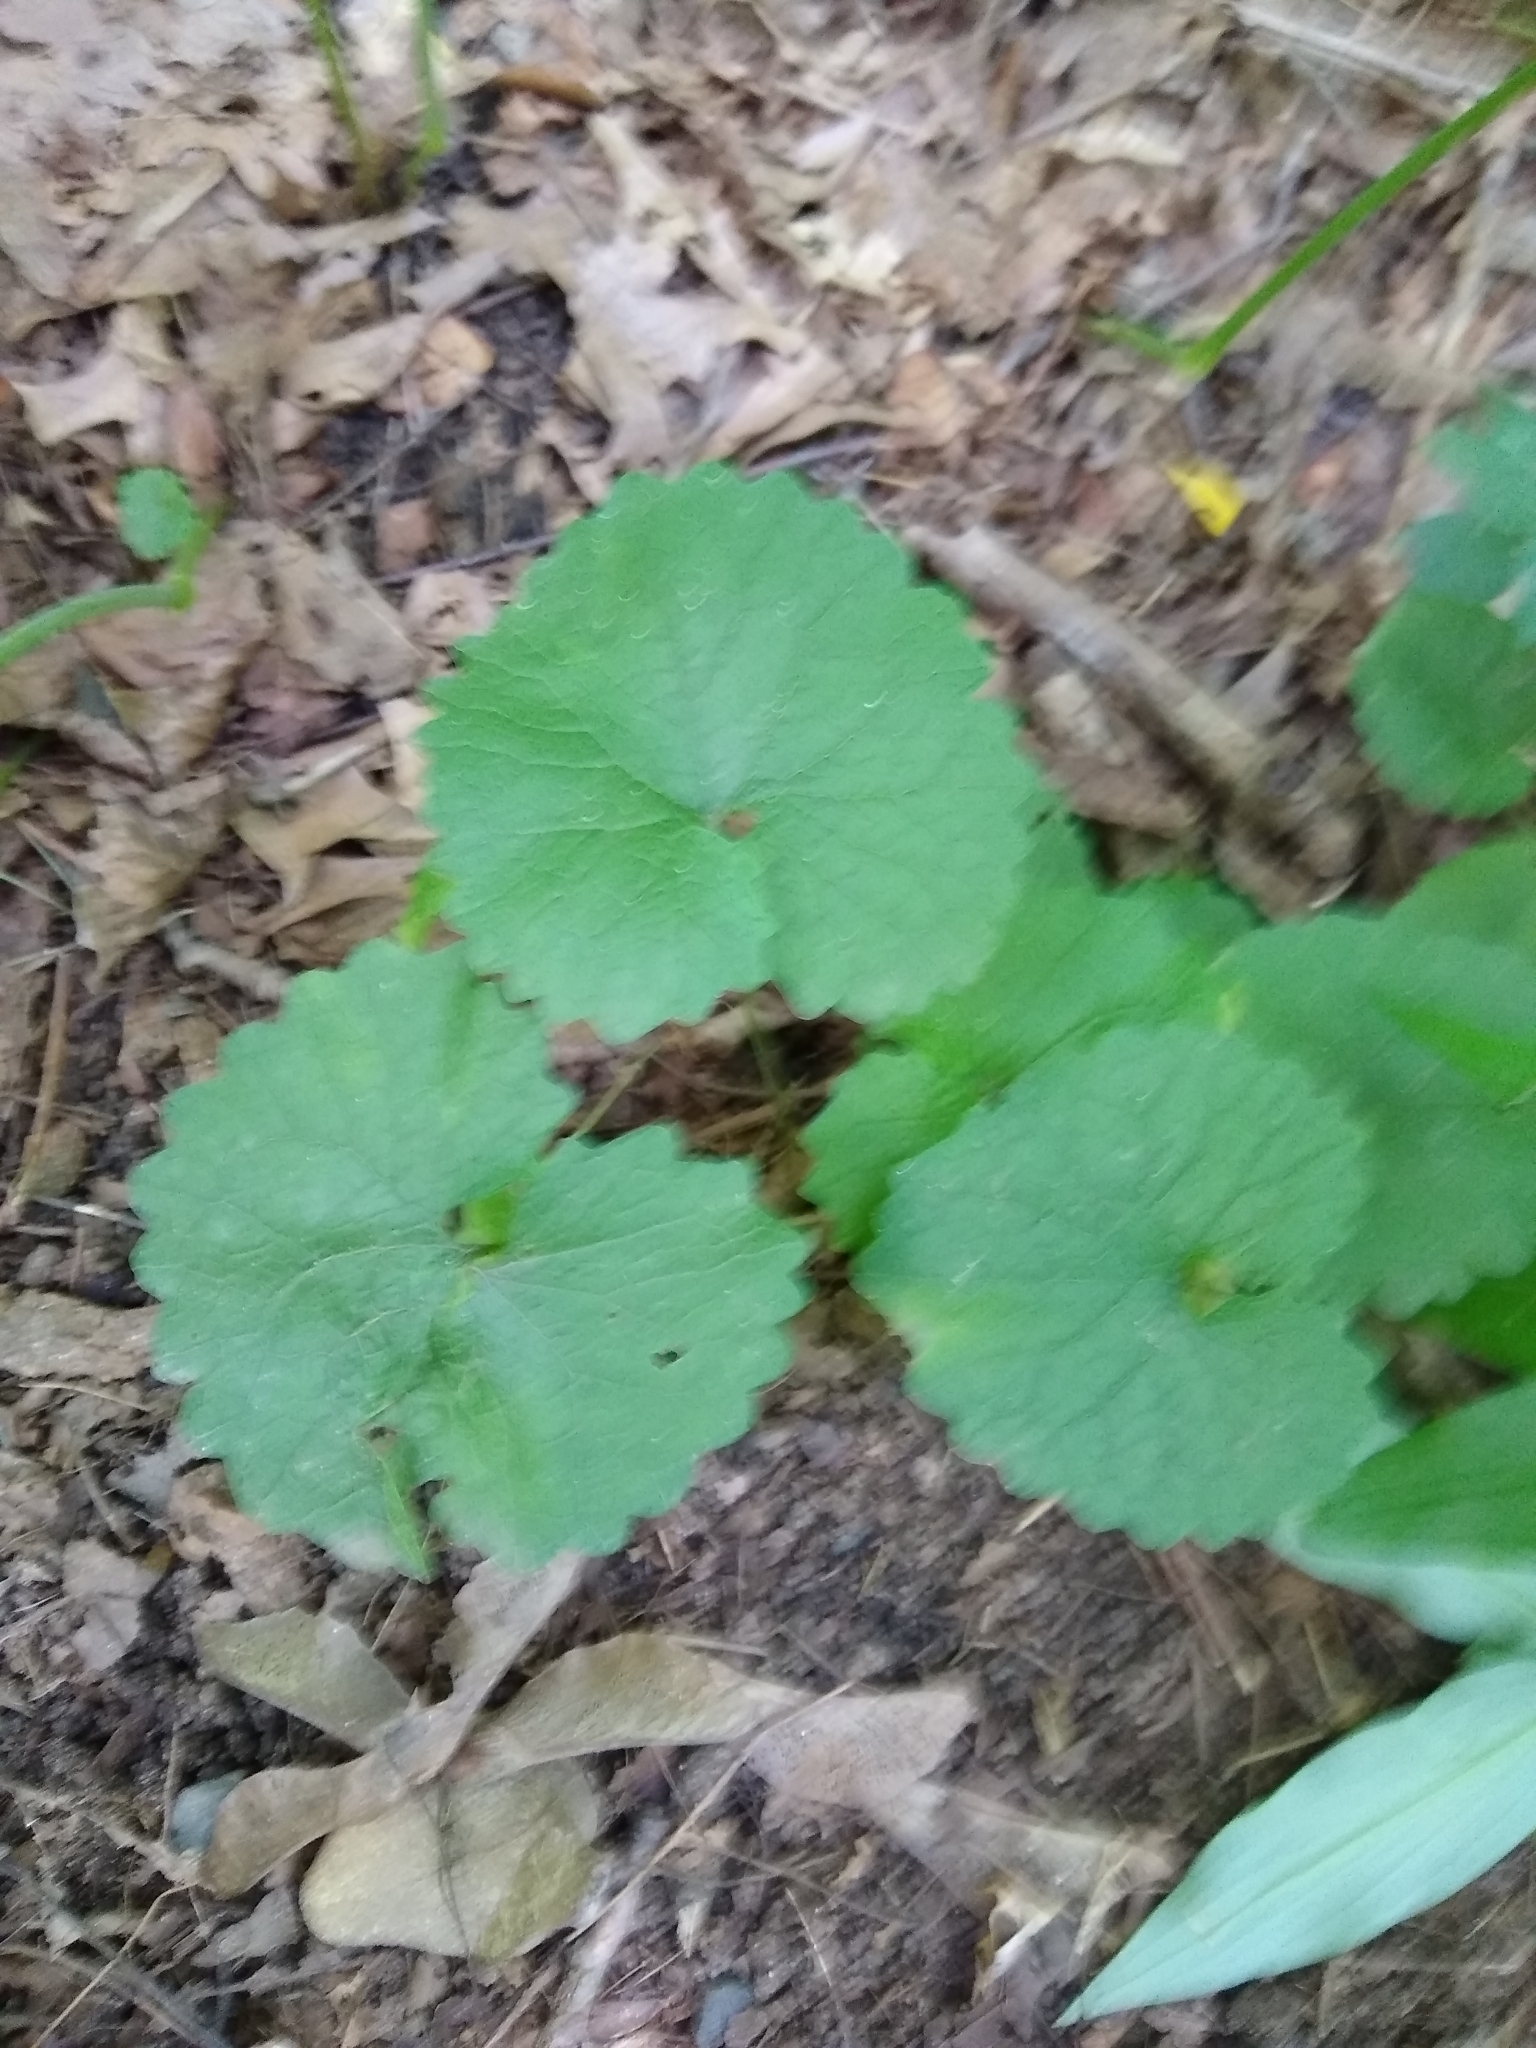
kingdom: Plantae
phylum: Tracheophyta
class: Magnoliopsida
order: Brassicales
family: Brassicaceae
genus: Alliaria
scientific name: Alliaria petiolata
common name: Garlic mustard
